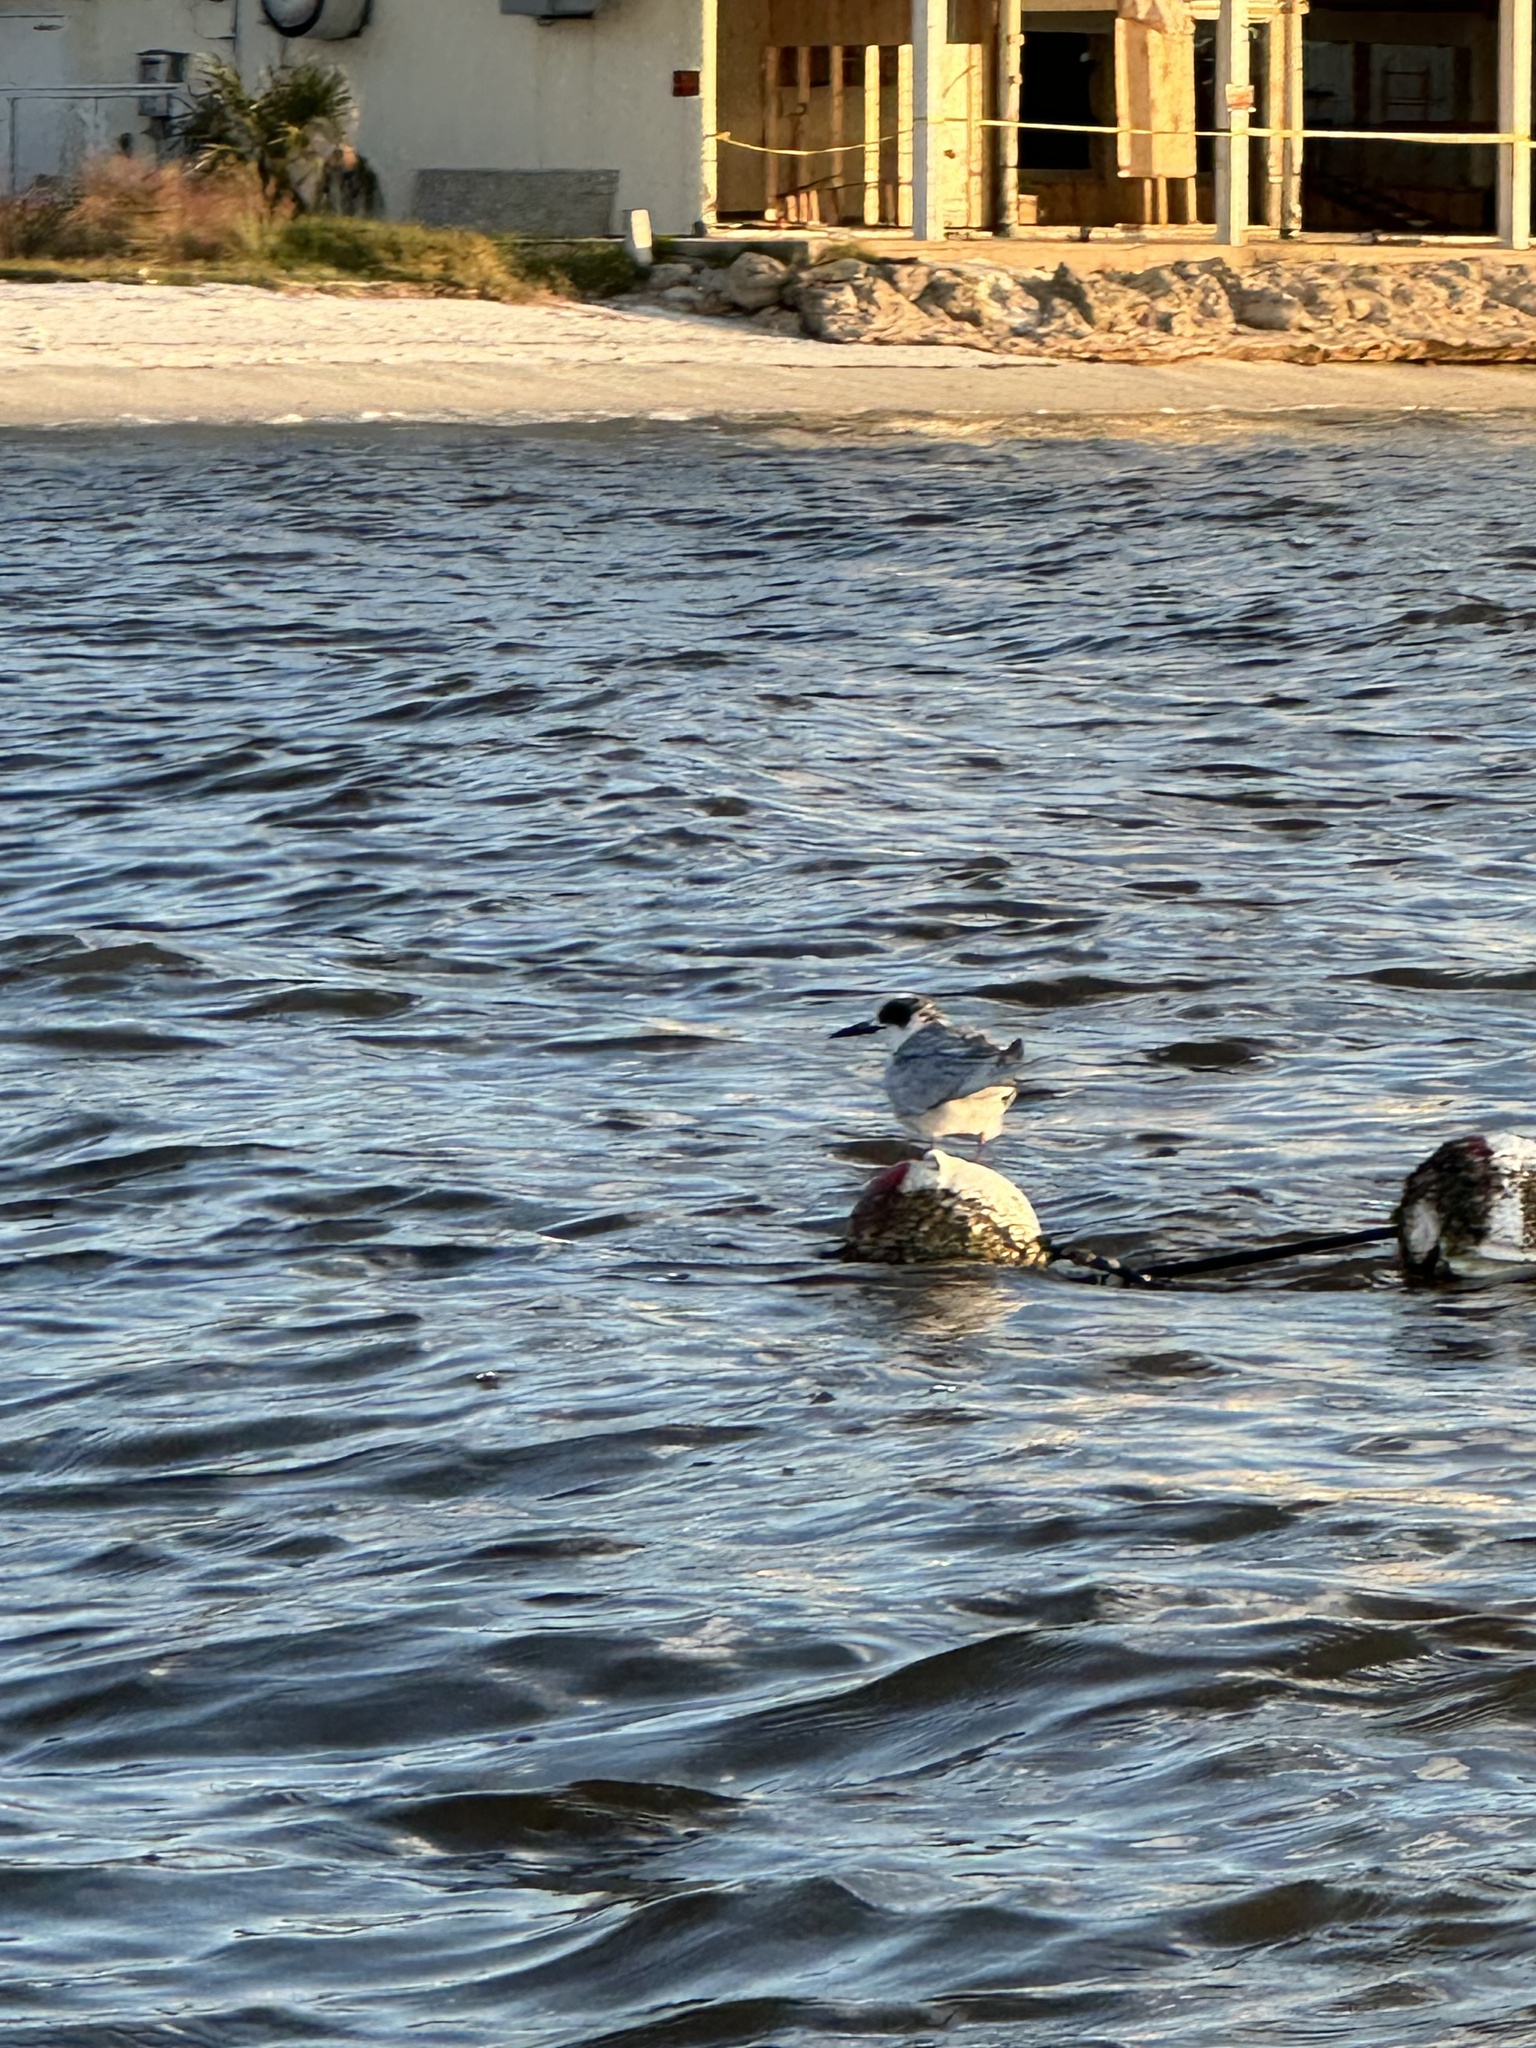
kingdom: Animalia
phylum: Chordata
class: Aves
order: Charadriiformes
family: Laridae
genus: Sterna
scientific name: Sterna forsteri
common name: Forster's tern
